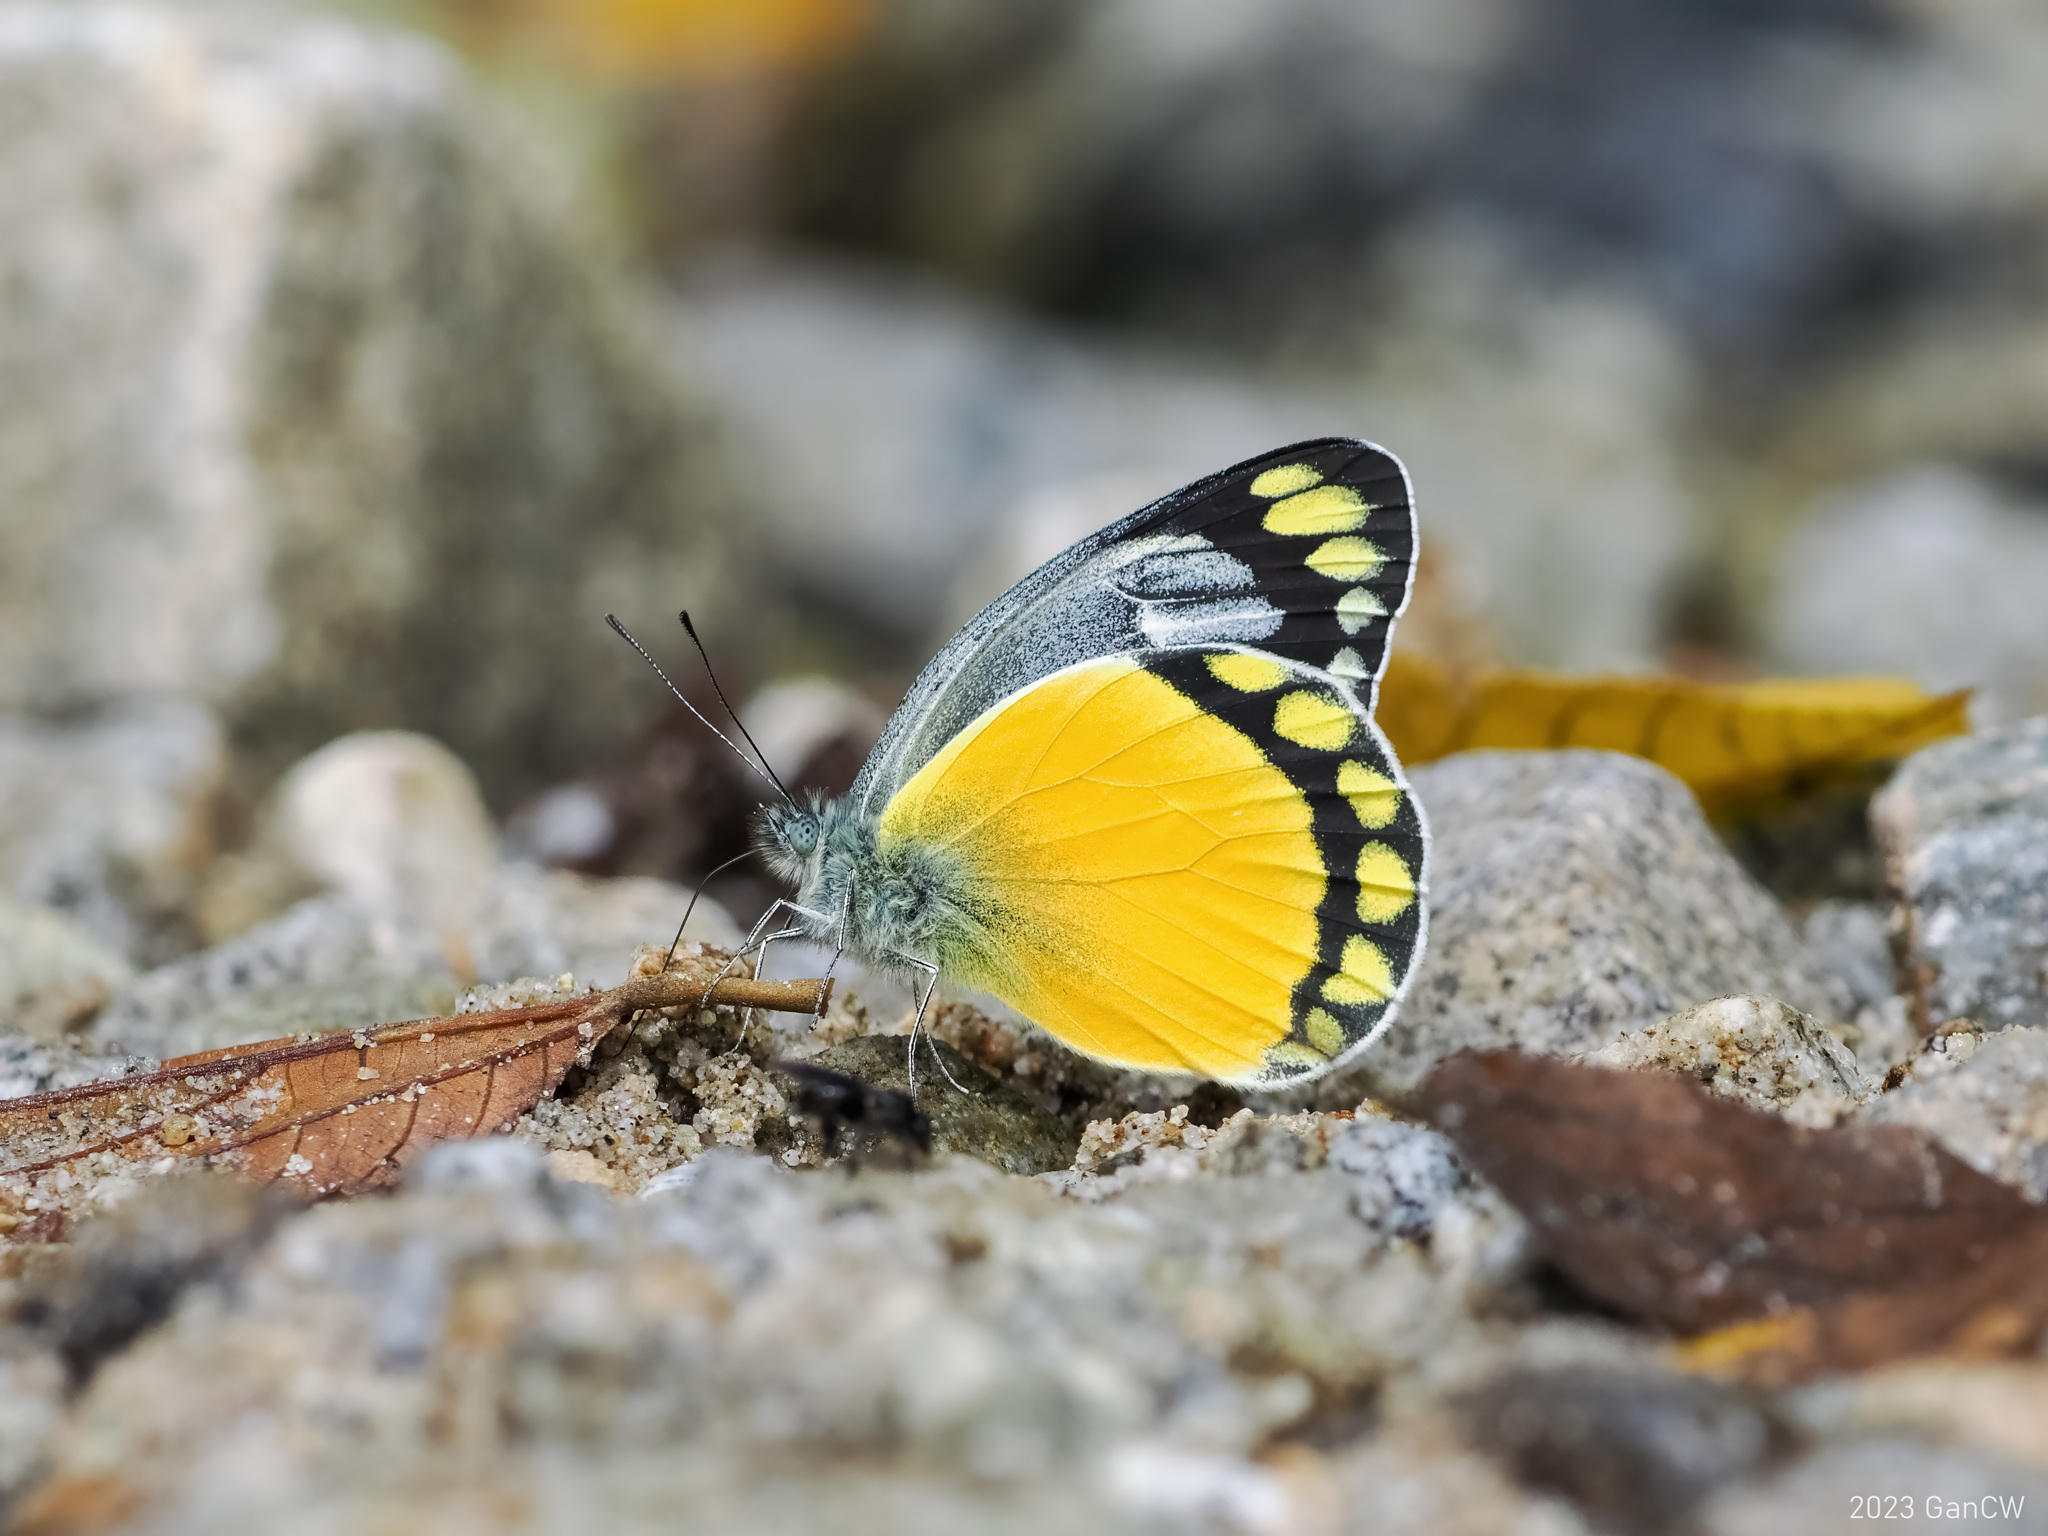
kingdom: Animalia
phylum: Arthropoda
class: Insecta
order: Lepidoptera
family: Pieridae
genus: Delias
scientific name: Delias melusina
